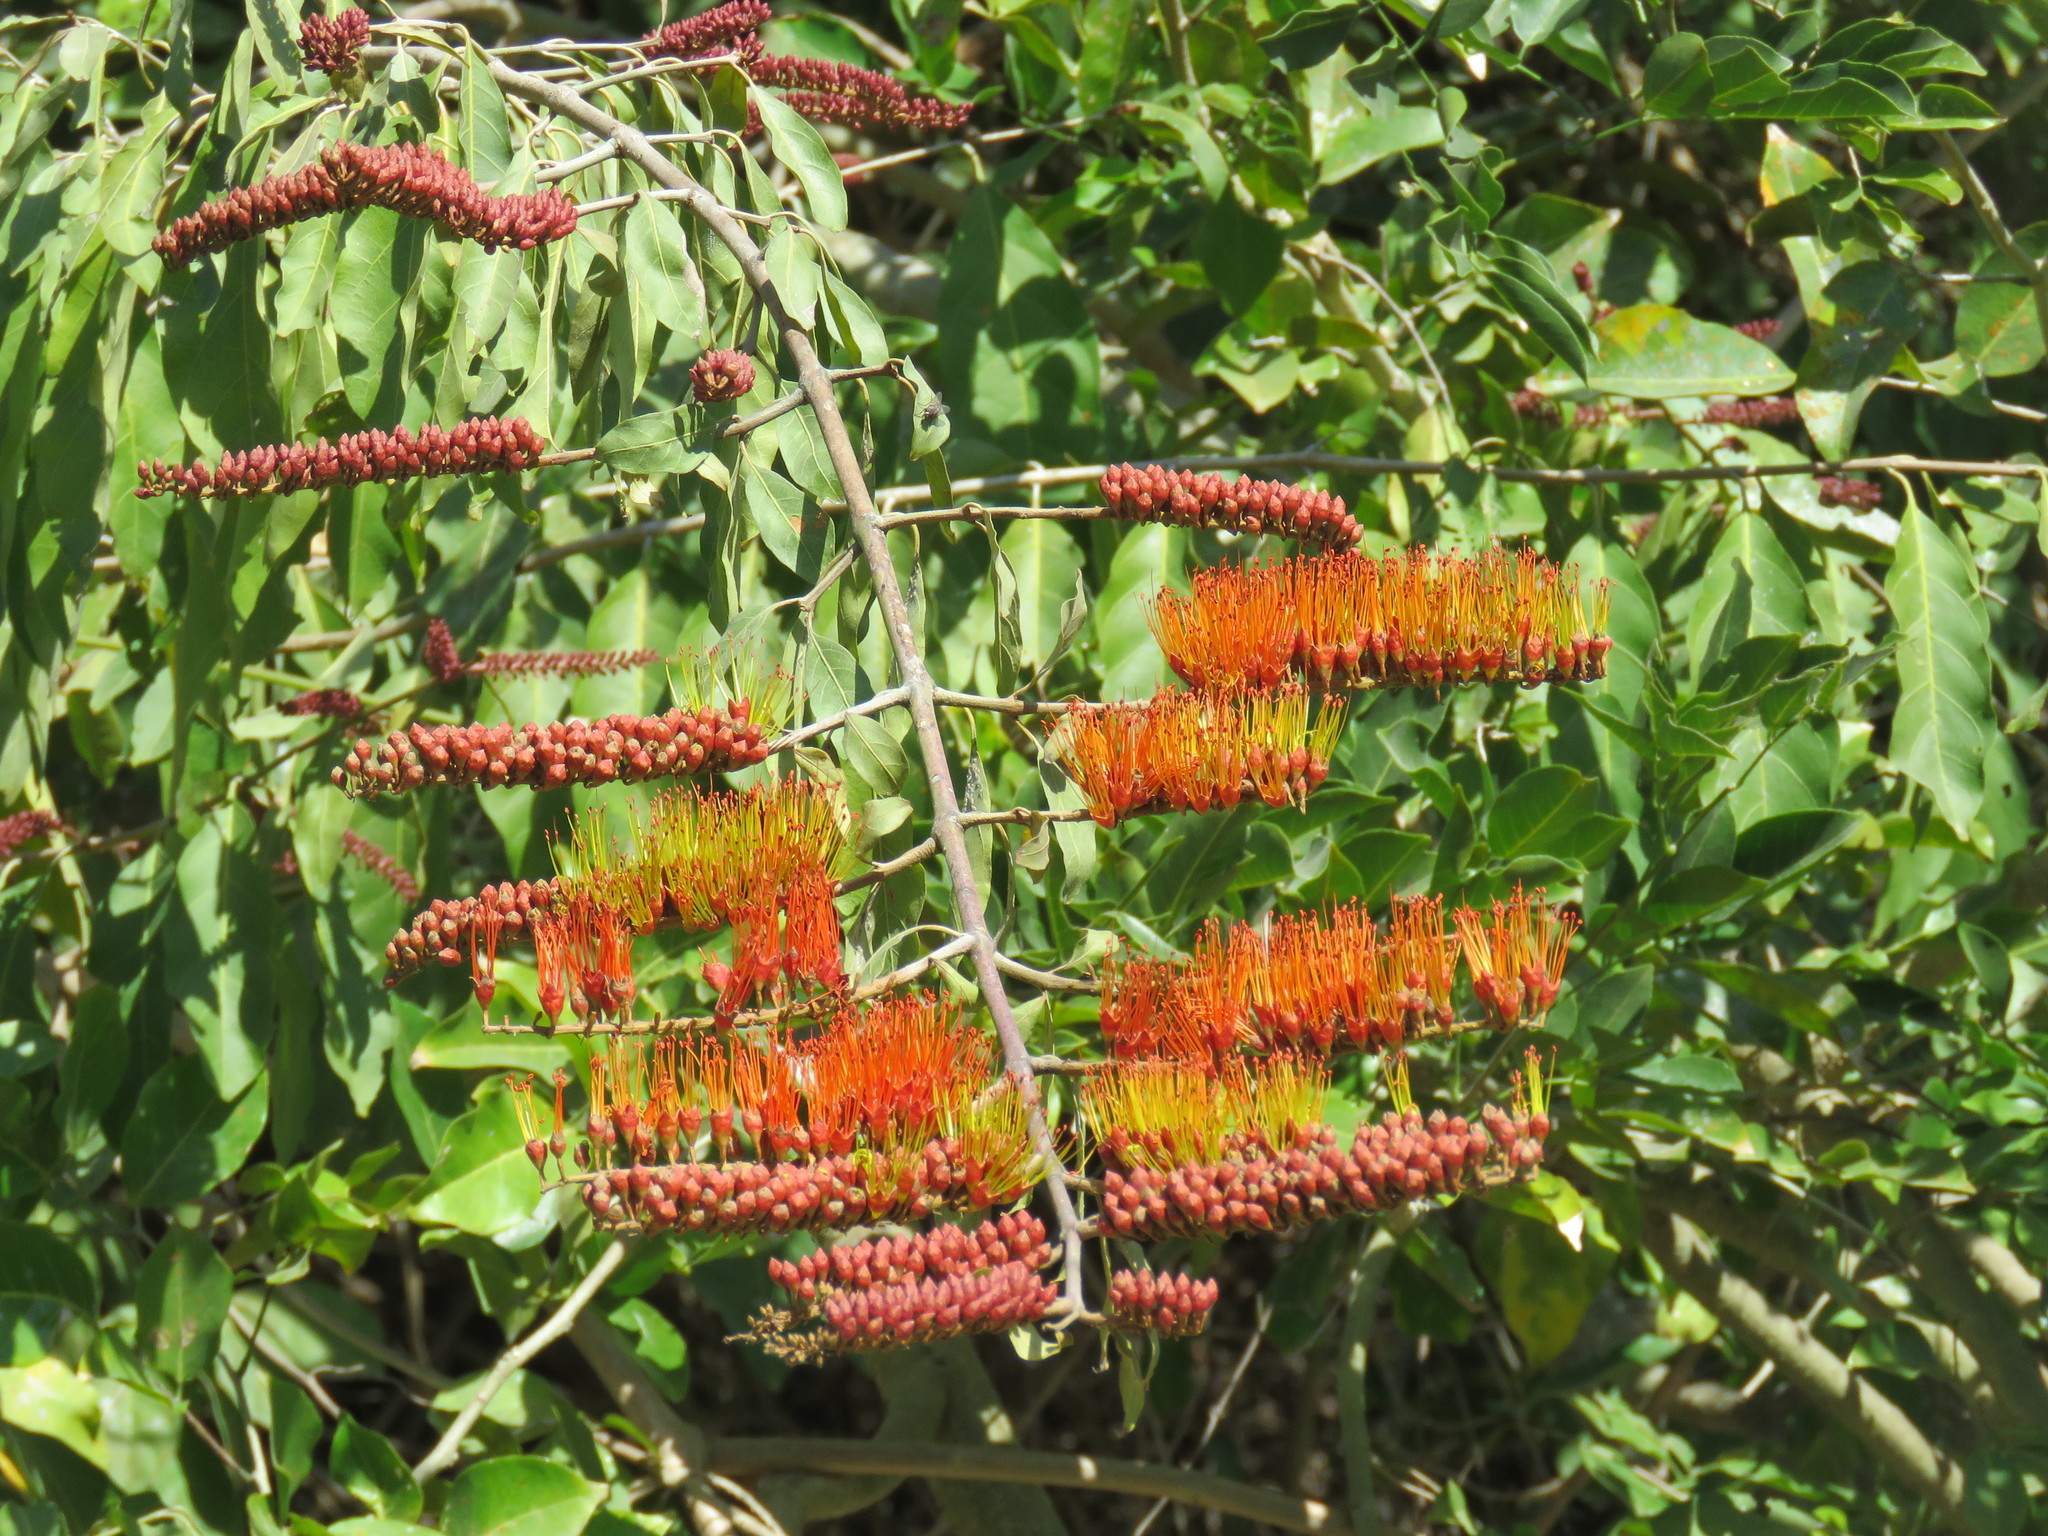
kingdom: Plantae
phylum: Tracheophyta
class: Magnoliopsida
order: Myrtales
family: Combretaceae
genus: Combretum
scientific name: Combretum farinosum
